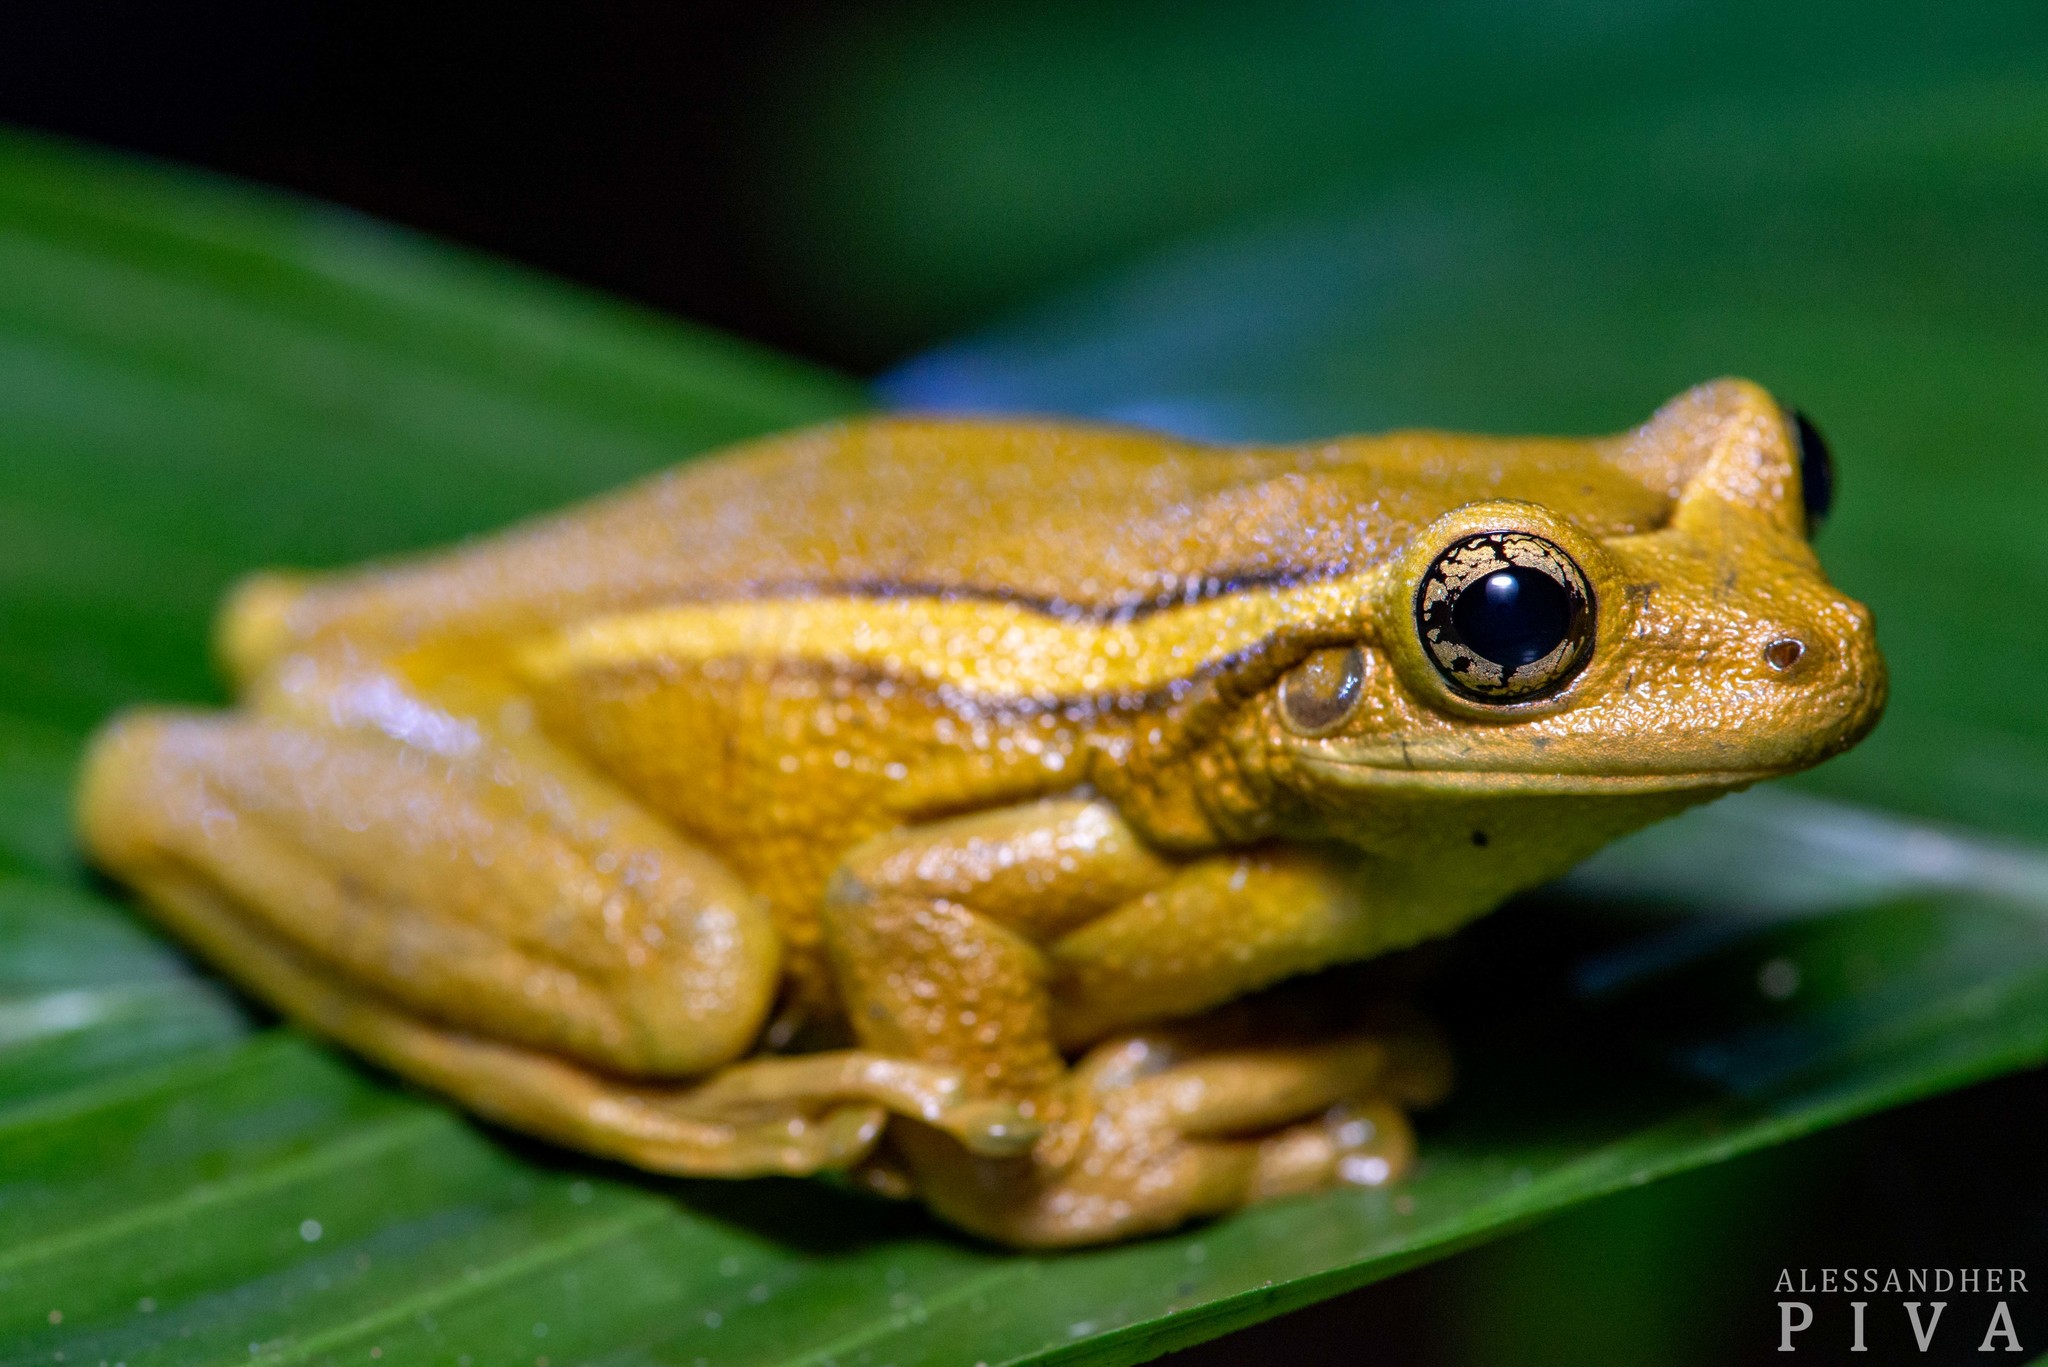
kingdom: Animalia
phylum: Chordata
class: Amphibia
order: Anura
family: Hylidae
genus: Trachycephalus
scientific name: Trachycephalus mesophaeus
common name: Porto alegre golden-eyed treefrog
